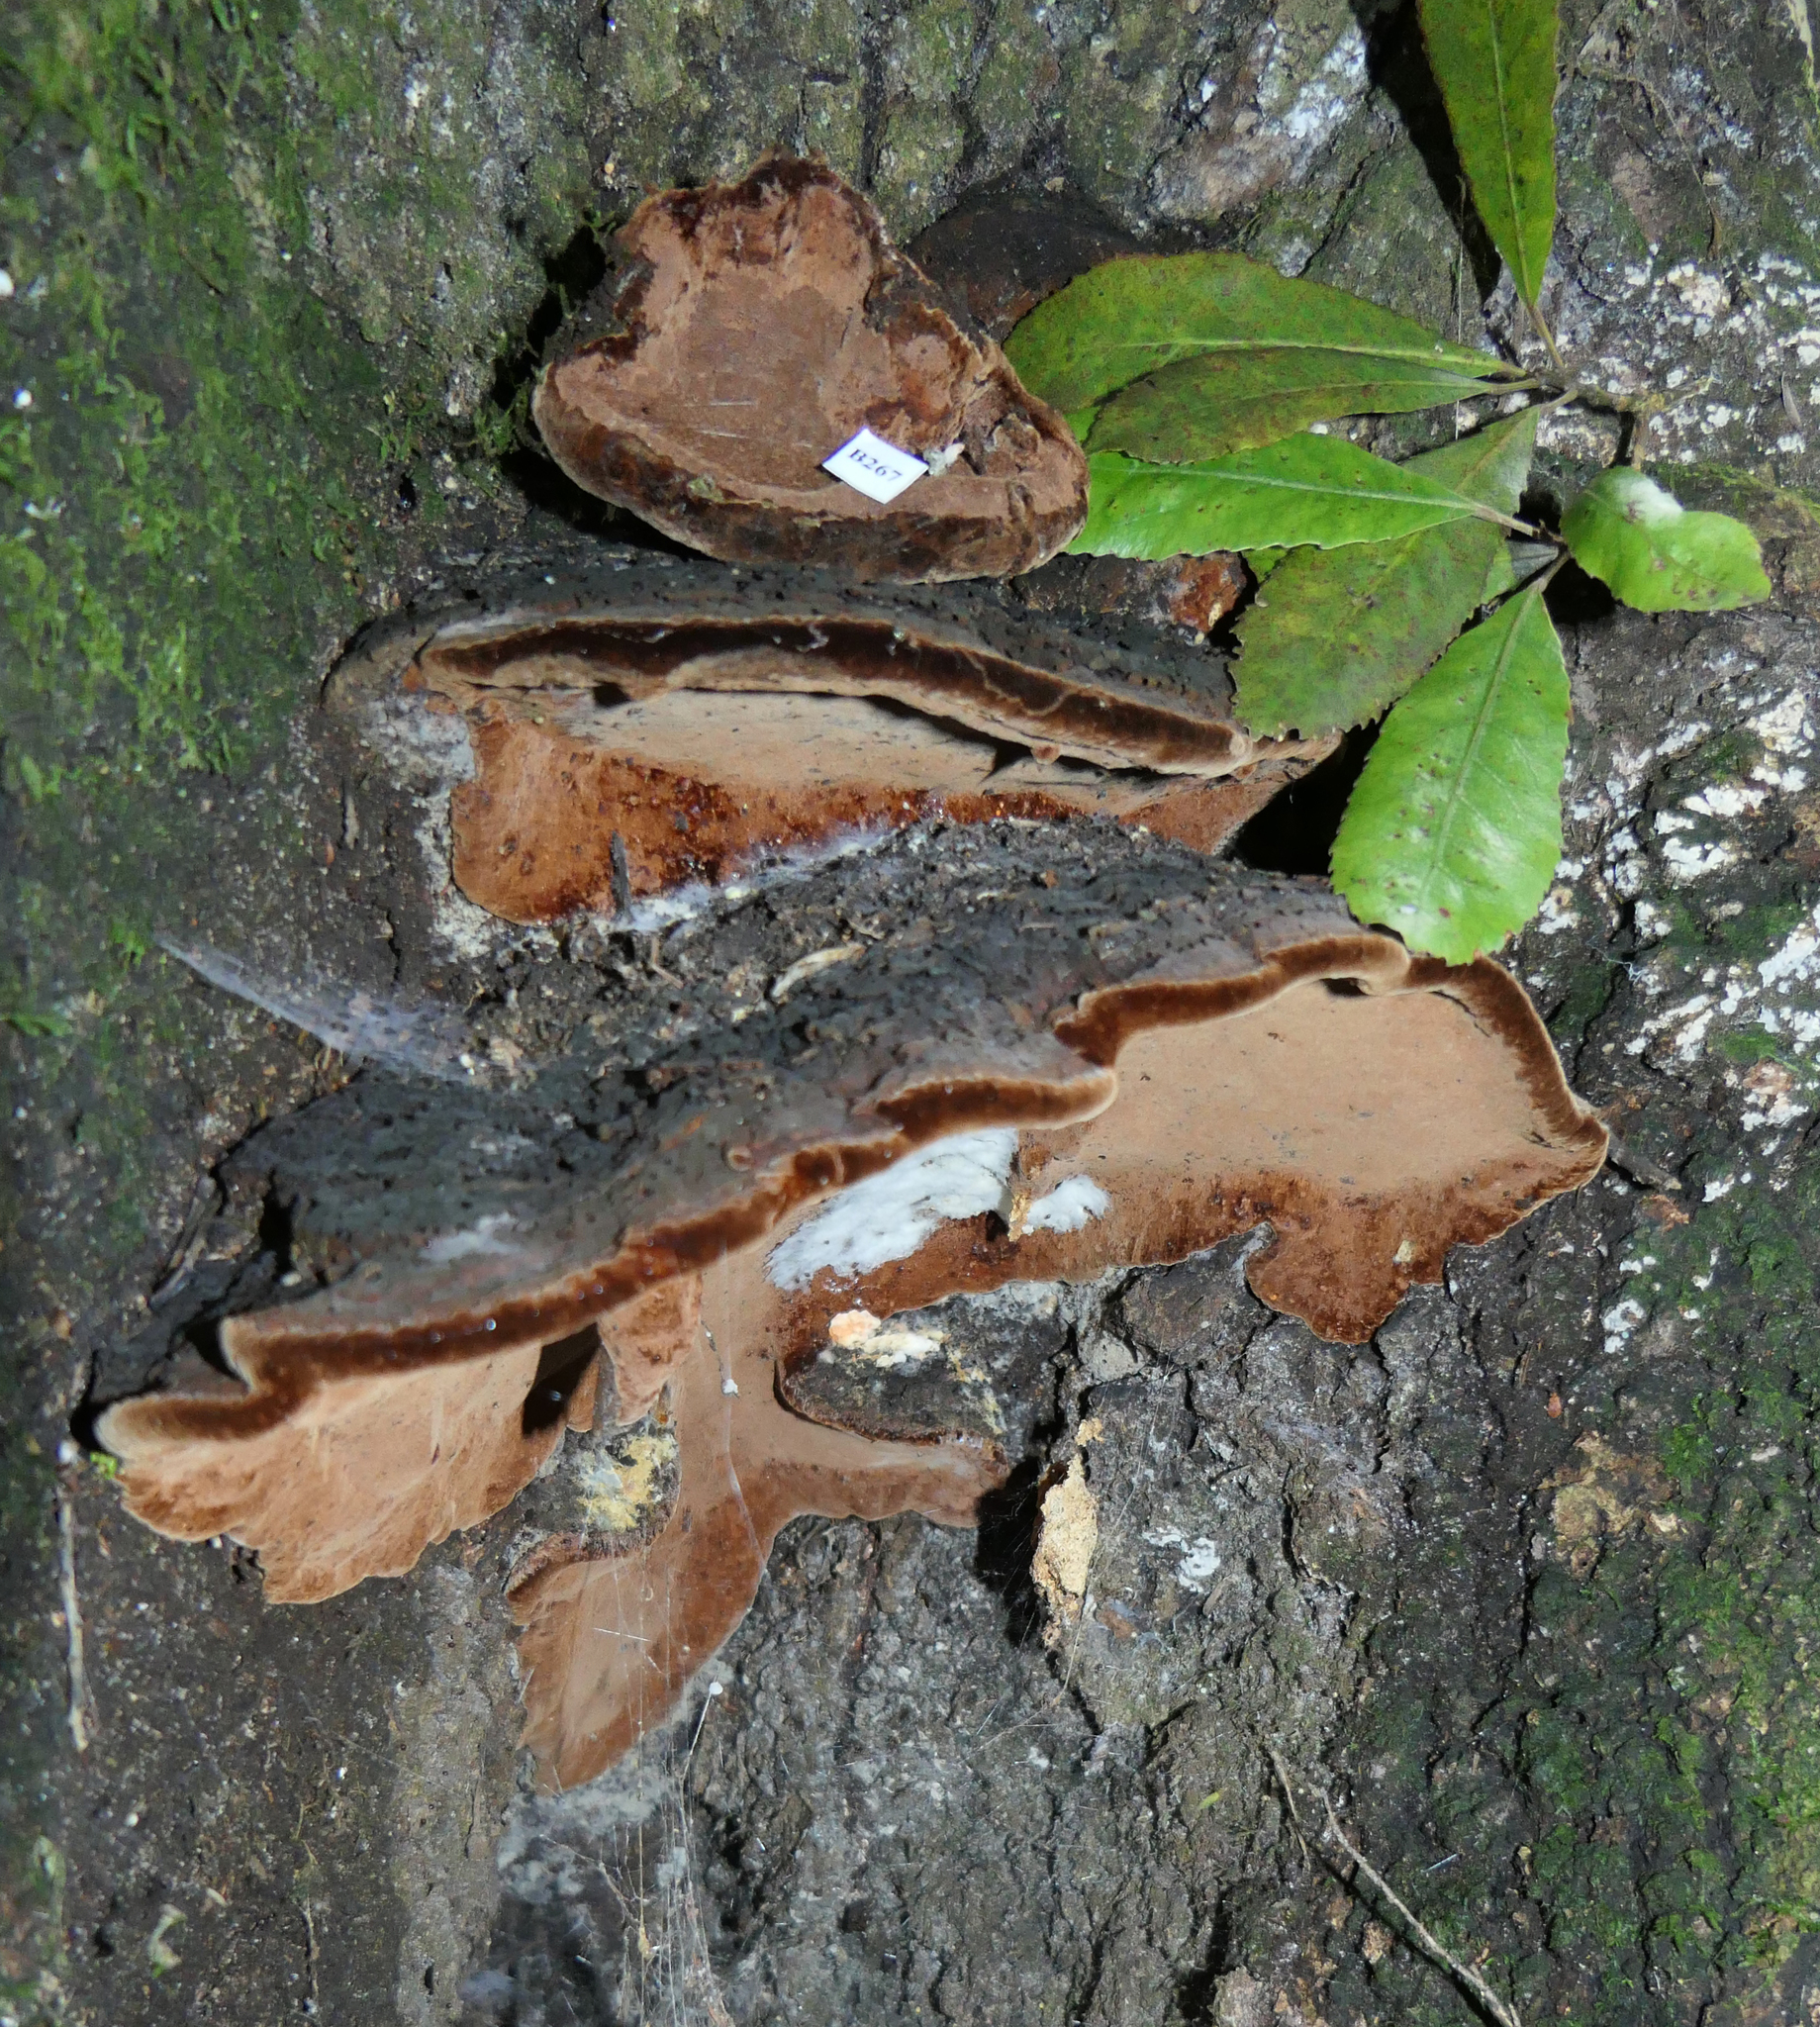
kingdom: Fungi
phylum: Basidiomycota
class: Agaricomycetes
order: Hymenochaetales
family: Hymenochaetaceae
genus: Fuscoporia
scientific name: Fuscoporia wahlbergii
